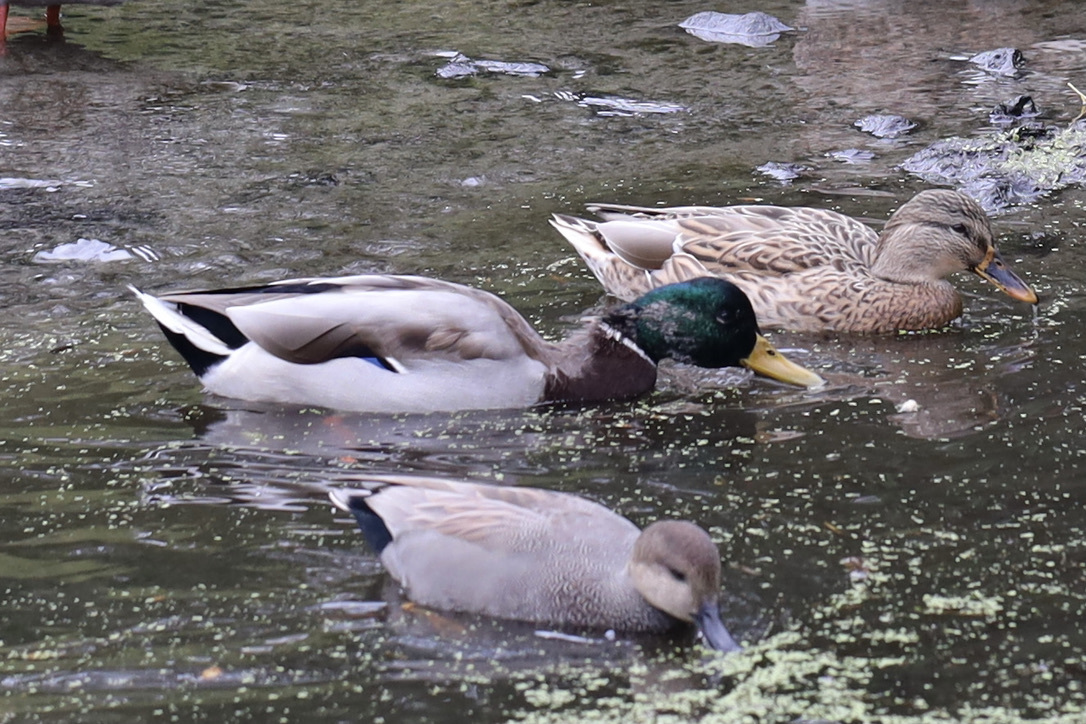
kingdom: Animalia
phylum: Chordata
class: Aves
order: Anseriformes
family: Anatidae
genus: Anas
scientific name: Anas platyrhynchos
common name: Mallard
